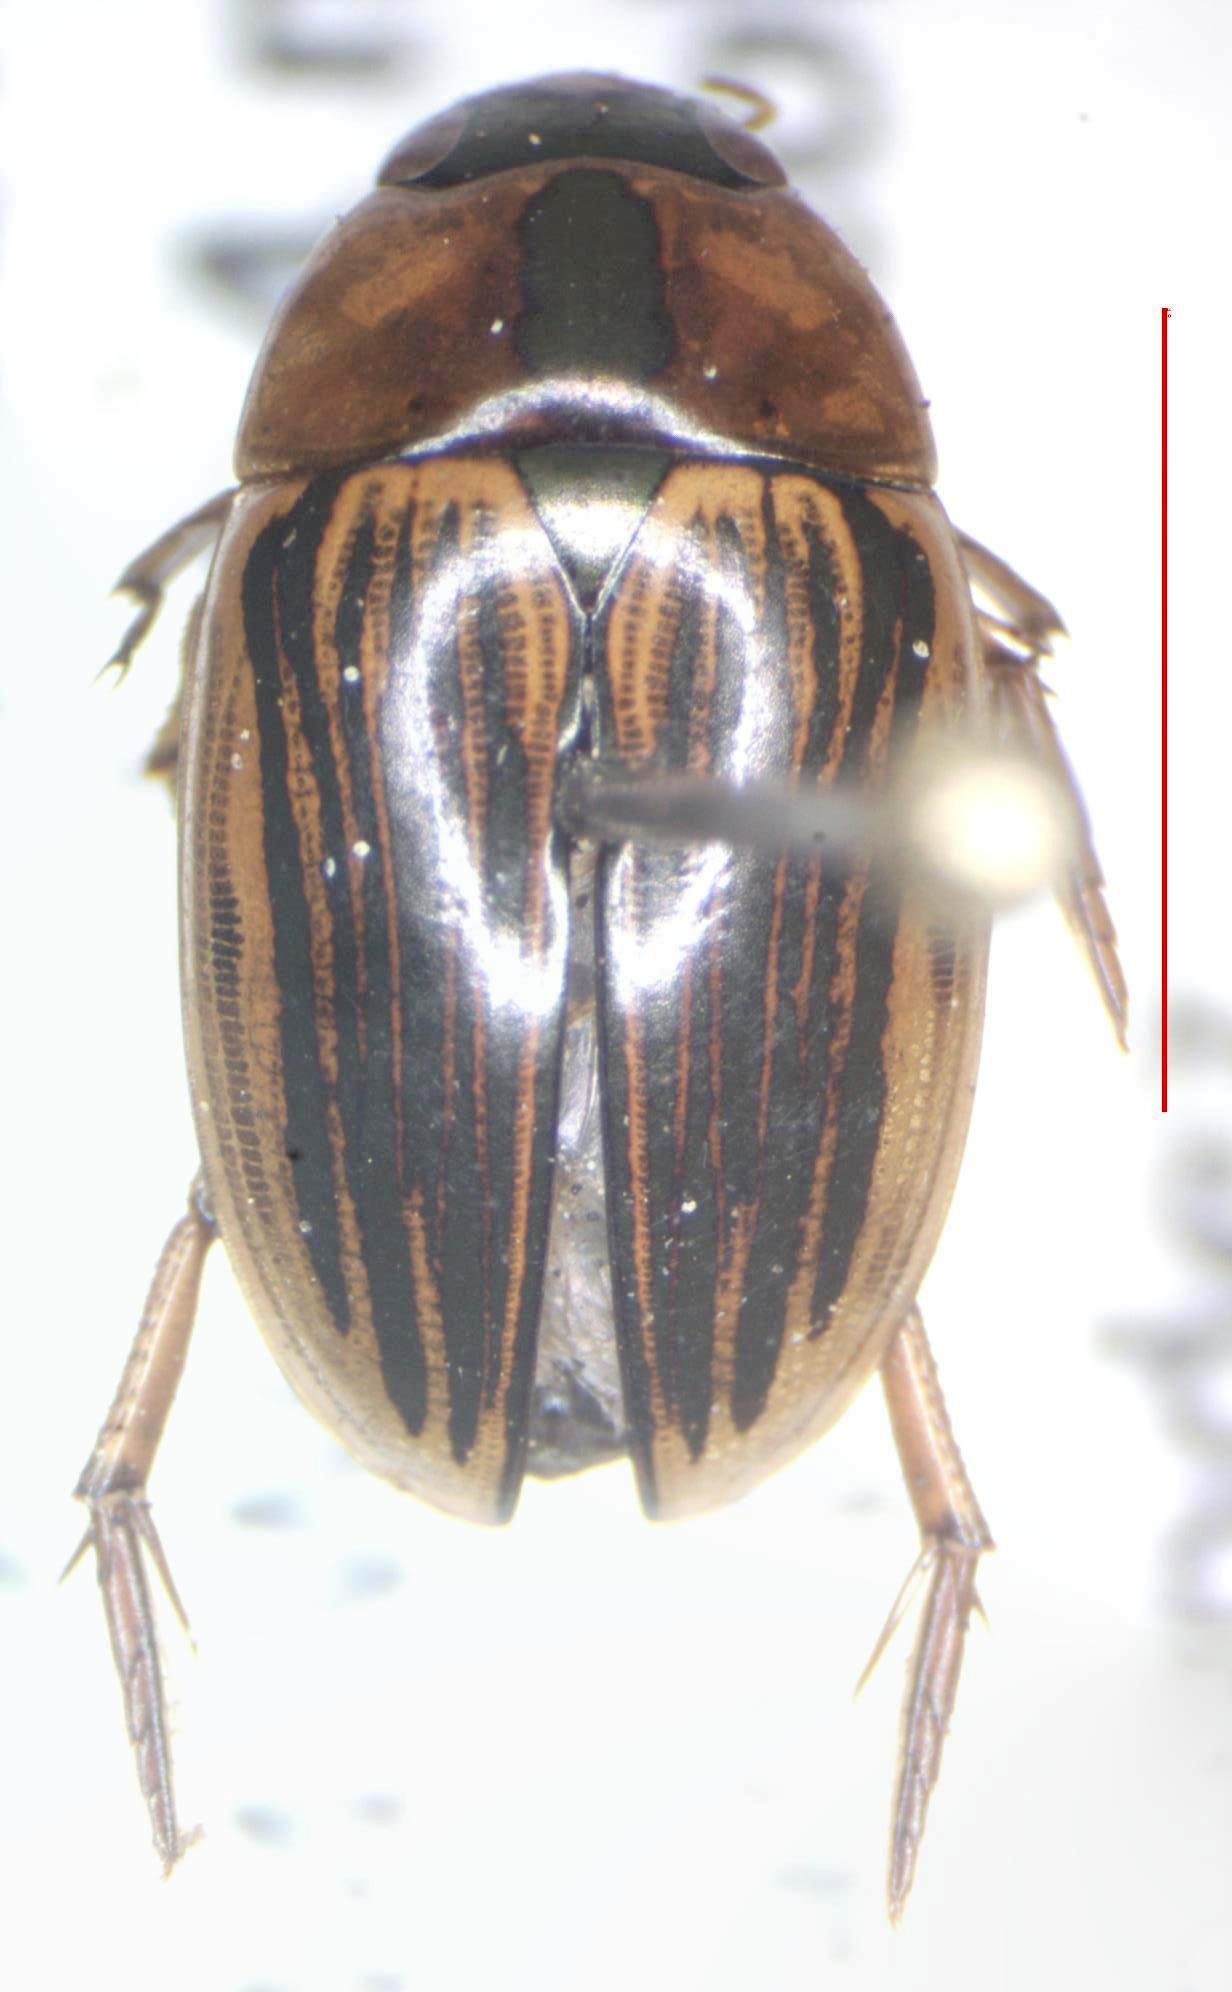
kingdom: Animalia
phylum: Arthropoda
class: Insecta
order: Coleoptera
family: Hydrophilidae
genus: Tropisternus
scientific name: Tropisternus collaris
